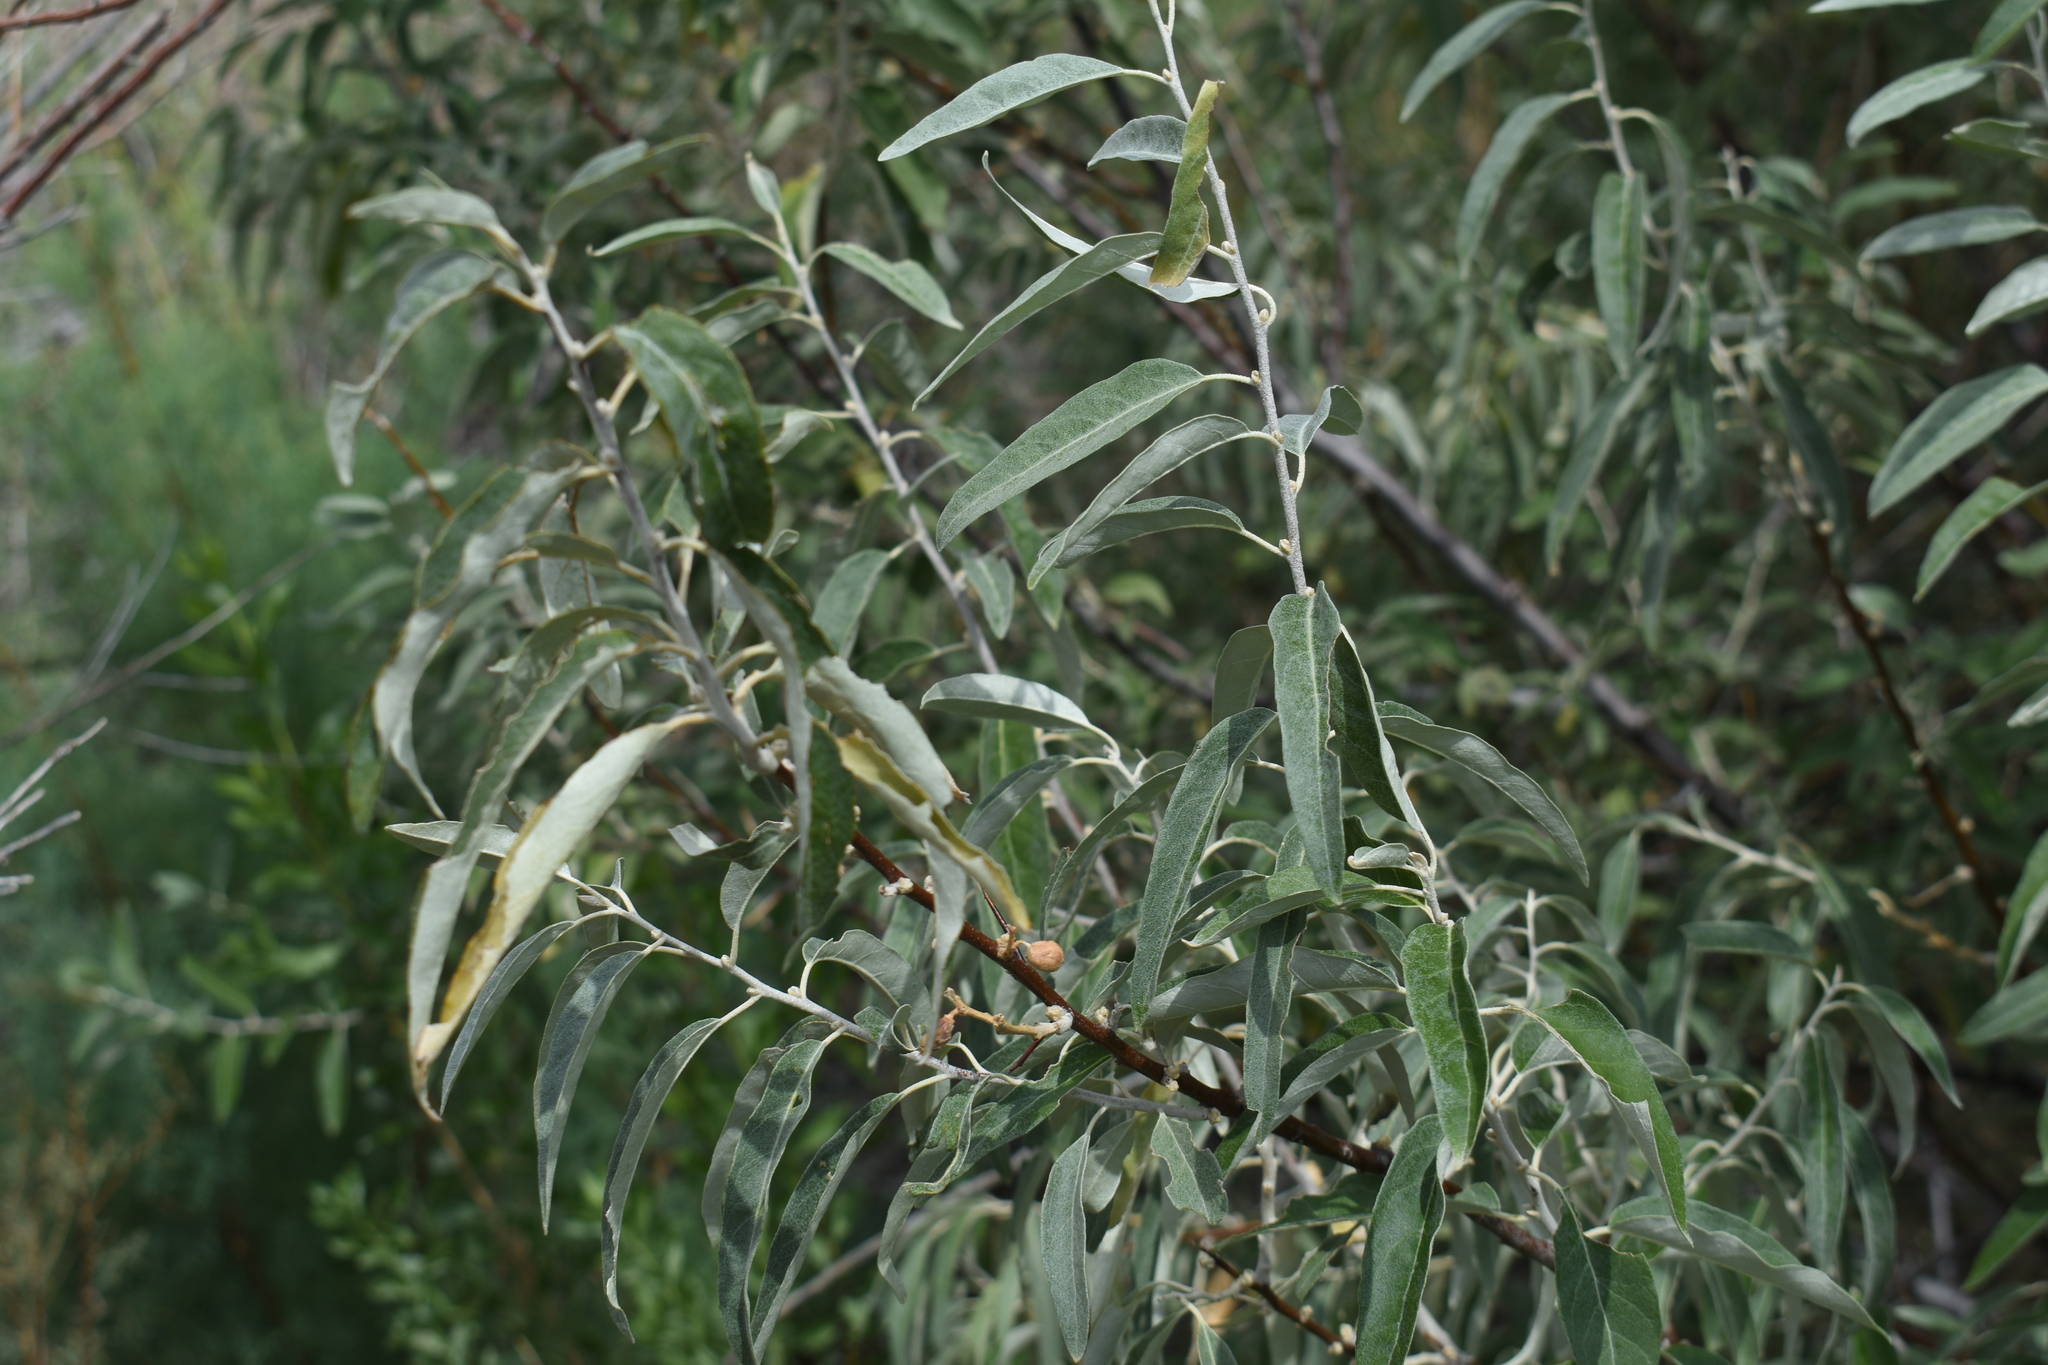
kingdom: Plantae
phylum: Tracheophyta
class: Magnoliopsida
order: Rosales
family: Elaeagnaceae
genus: Elaeagnus
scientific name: Elaeagnus angustifolia
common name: Russian olive
